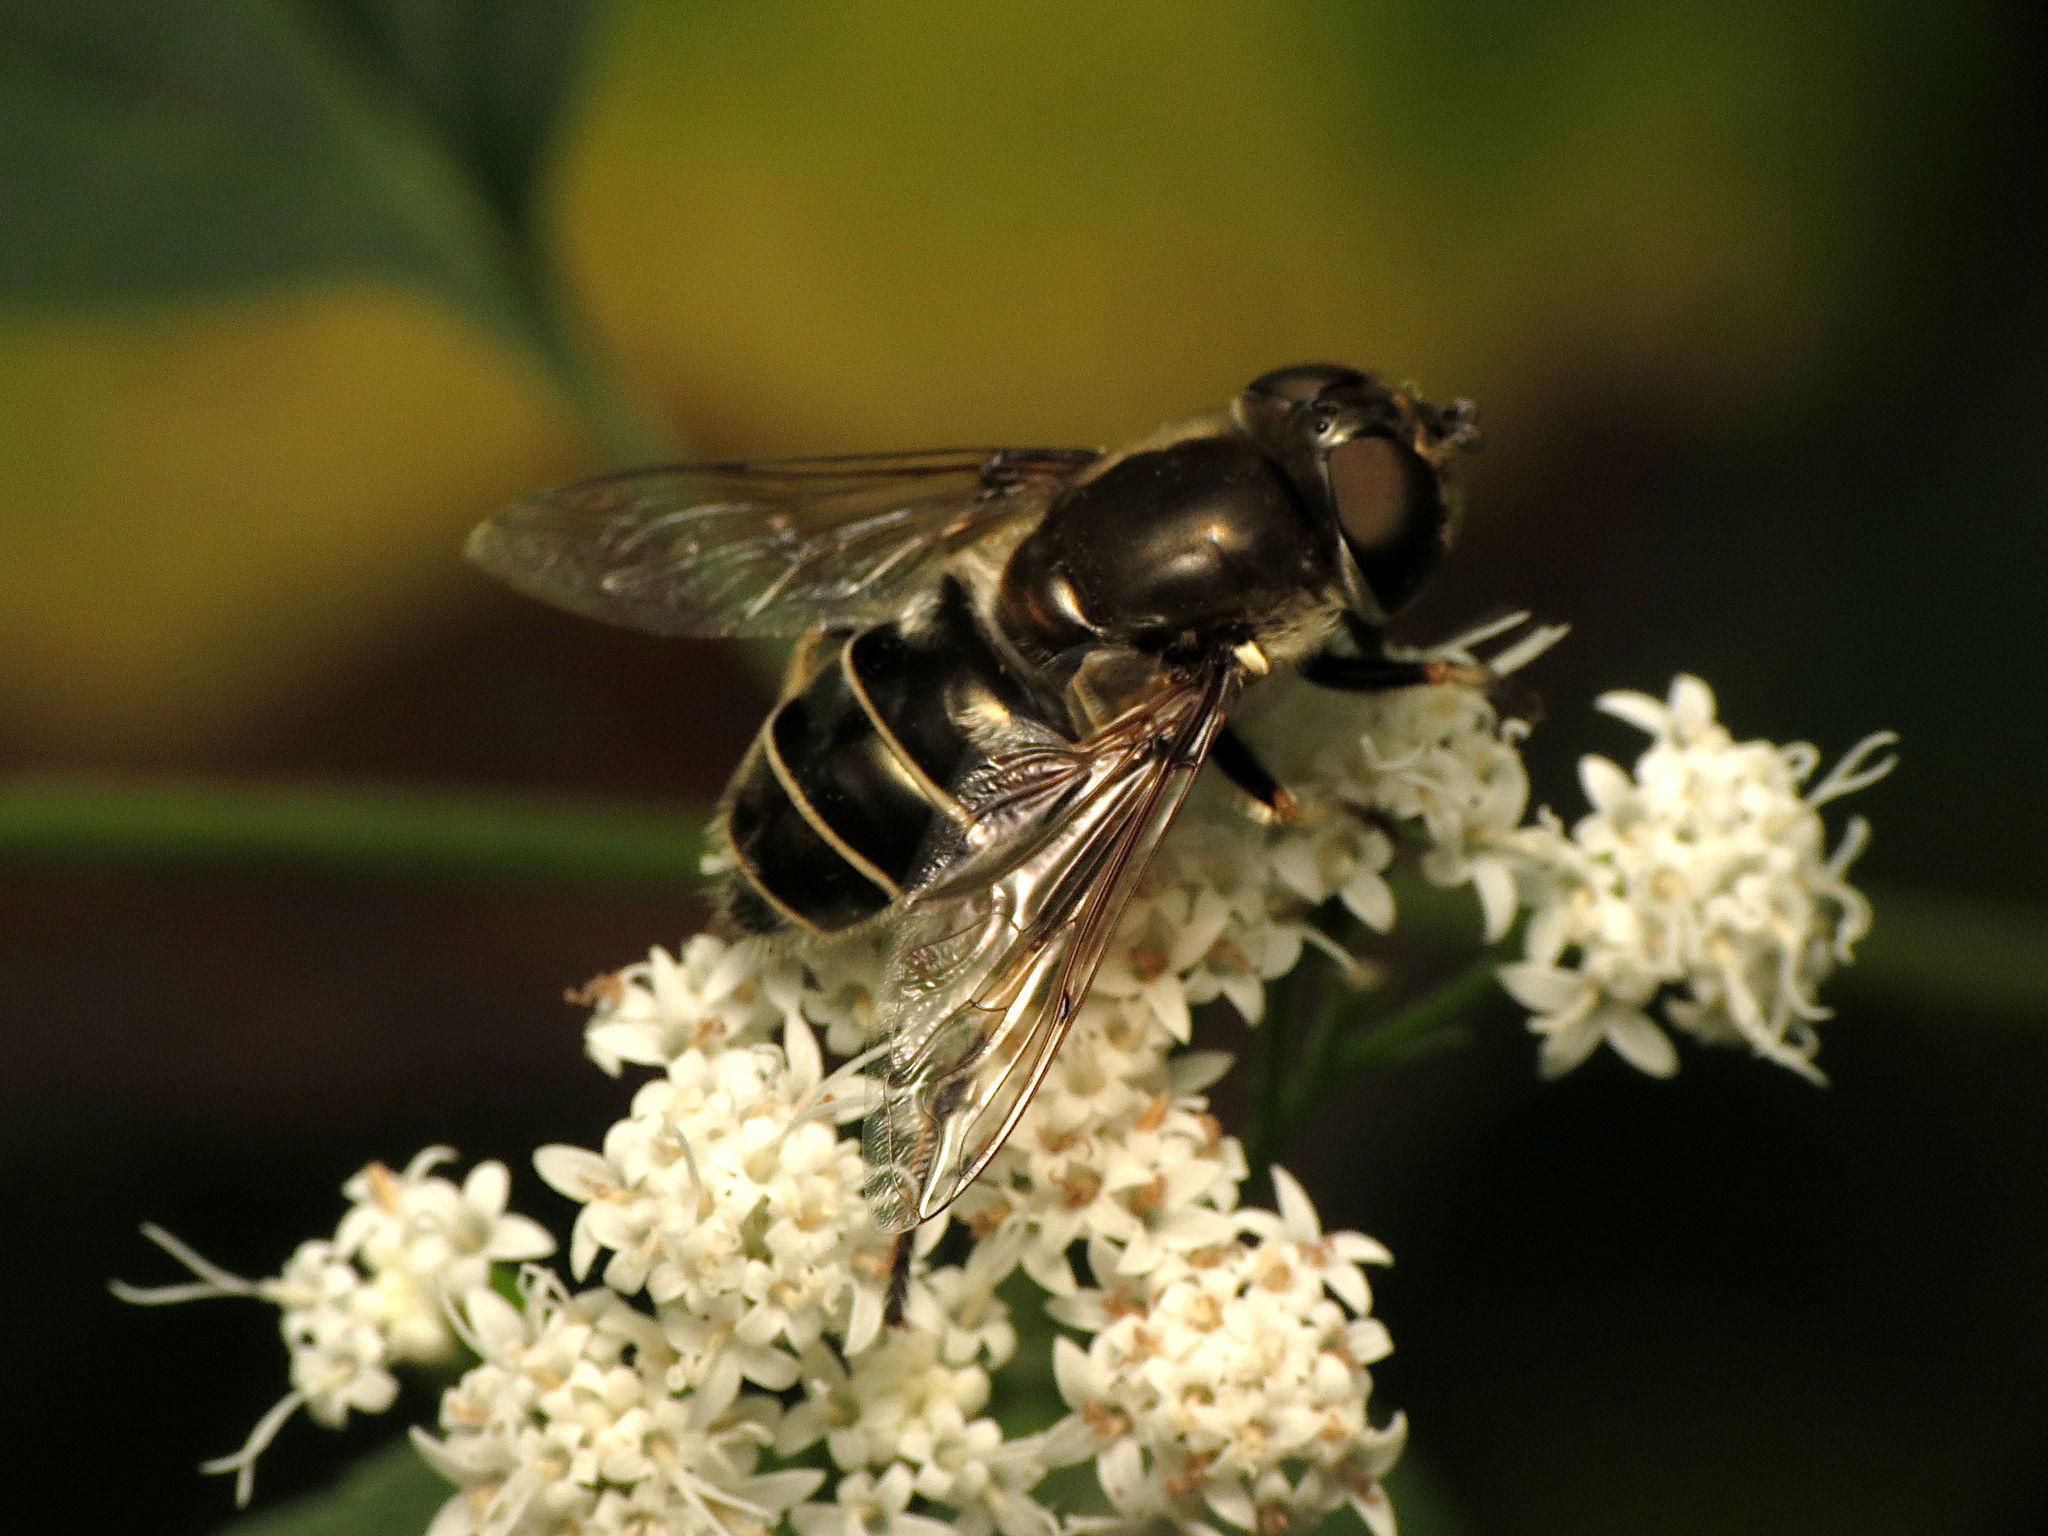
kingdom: Animalia
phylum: Arthropoda
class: Insecta
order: Diptera
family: Syrphidae
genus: Eristalis
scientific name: Eristalis dimidiata
